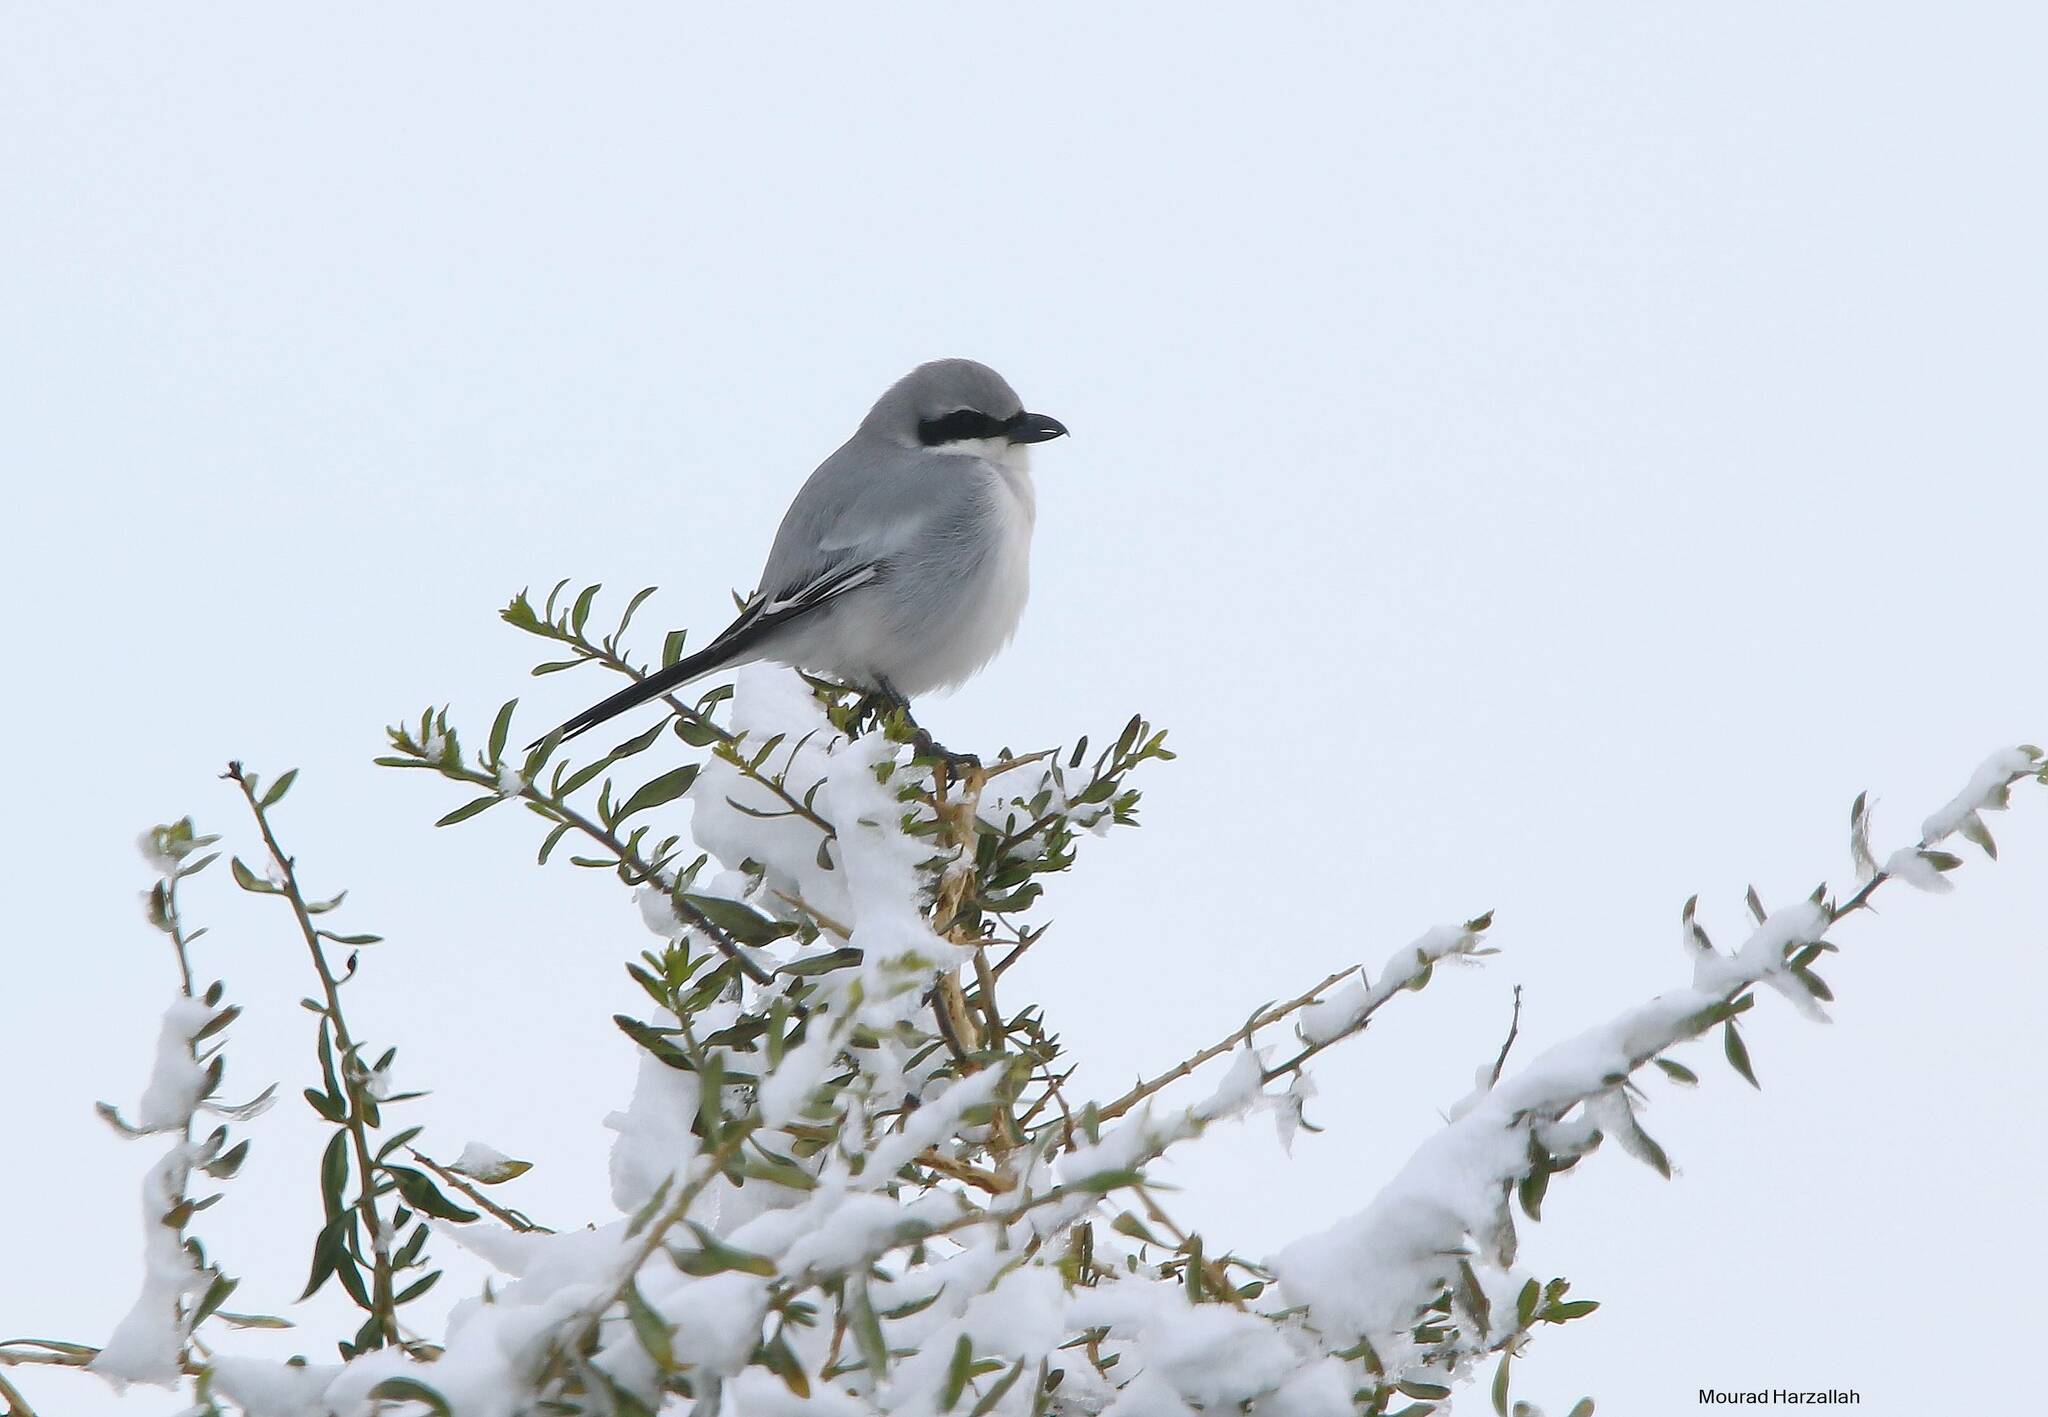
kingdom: Animalia
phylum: Chordata
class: Aves
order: Passeriformes
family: Laniidae
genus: Lanius
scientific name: Lanius excubitor
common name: Great grey shrike
